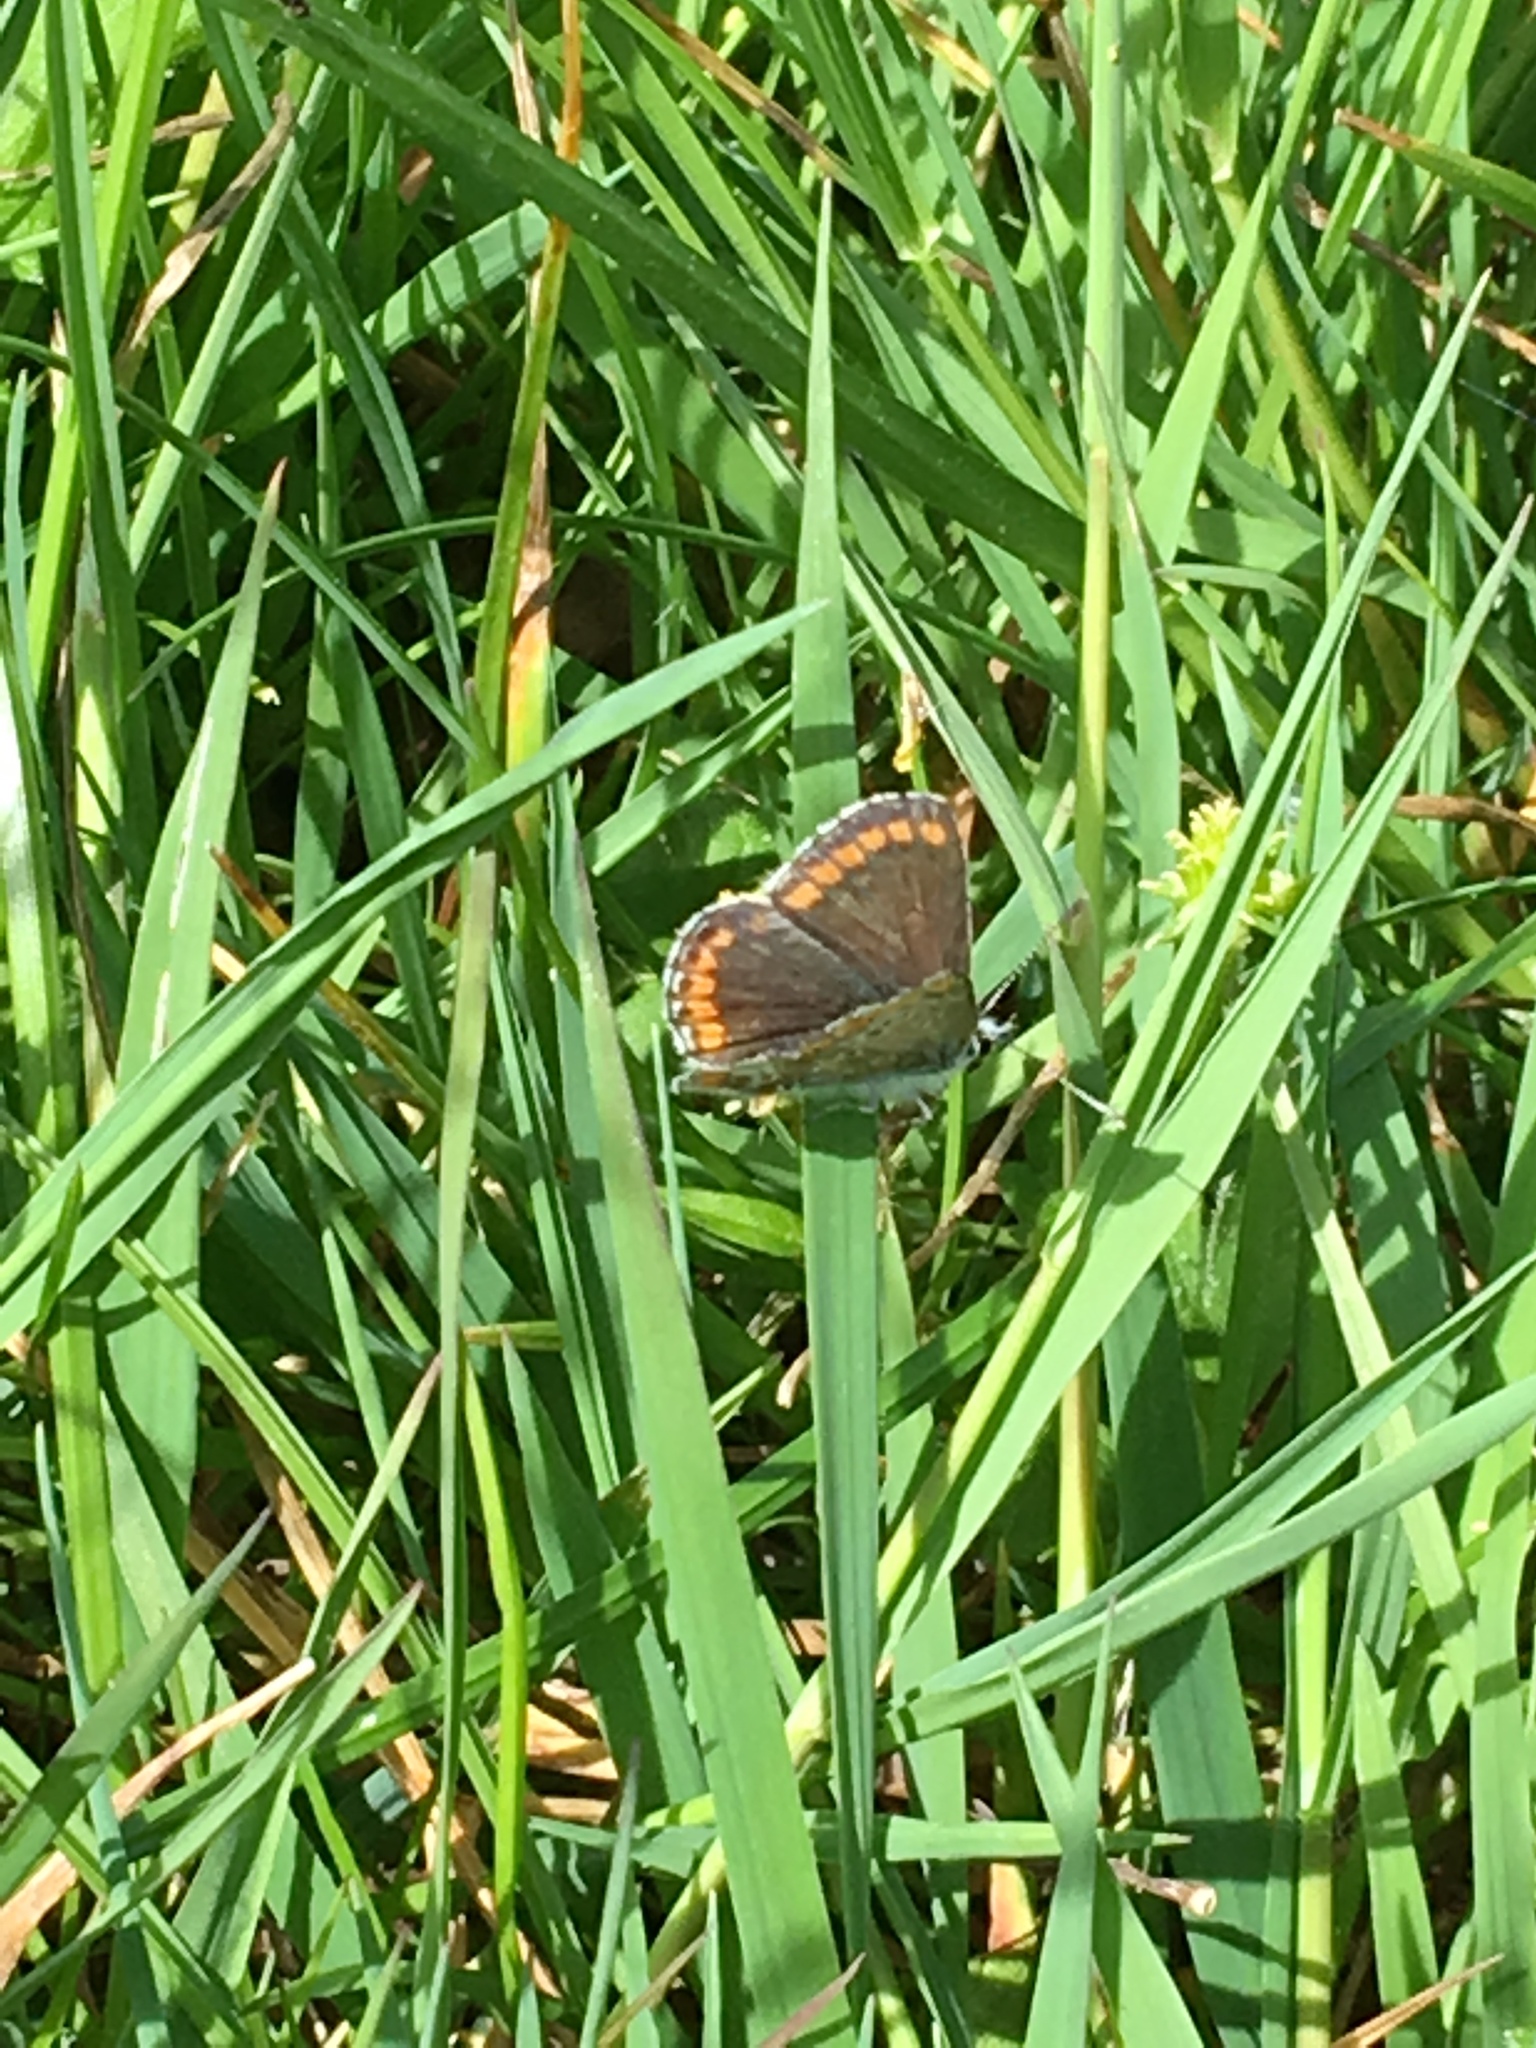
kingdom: Animalia
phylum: Arthropoda
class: Insecta
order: Lepidoptera
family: Lycaenidae
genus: Aricia
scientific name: Aricia agestis
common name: Brown argus
